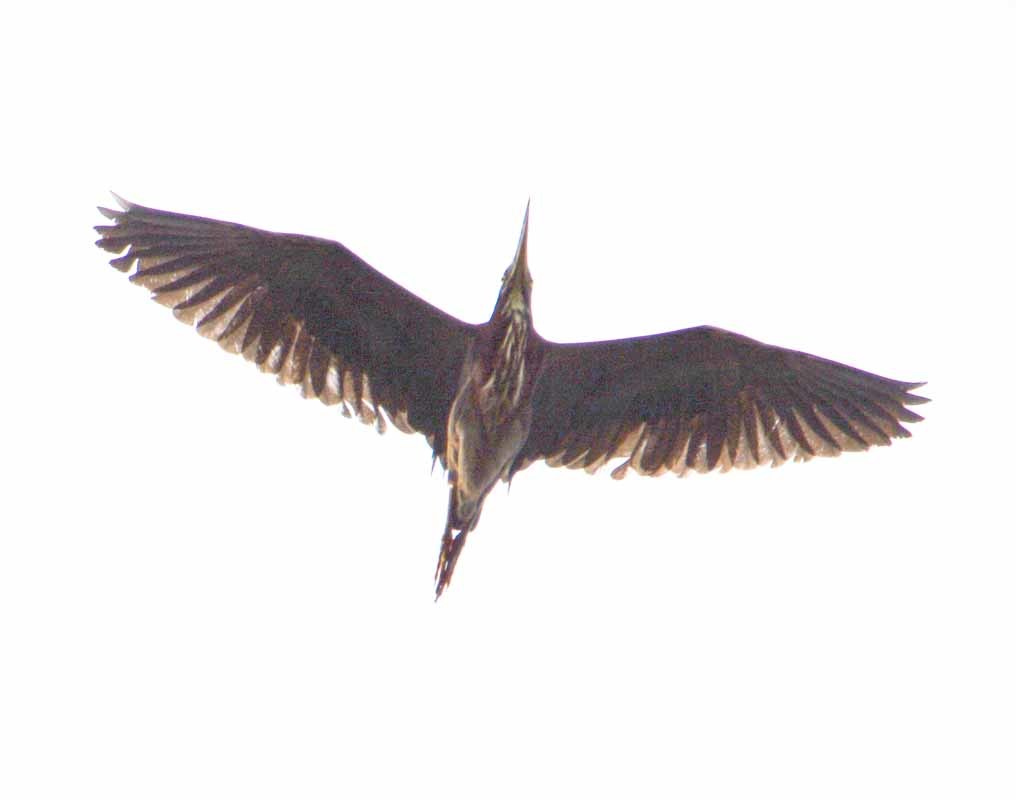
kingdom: Animalia
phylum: Chordata
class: Aves
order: Pelecaniformes
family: Ardeidae
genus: Butorides
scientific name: Butorides virescens
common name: Green heron
